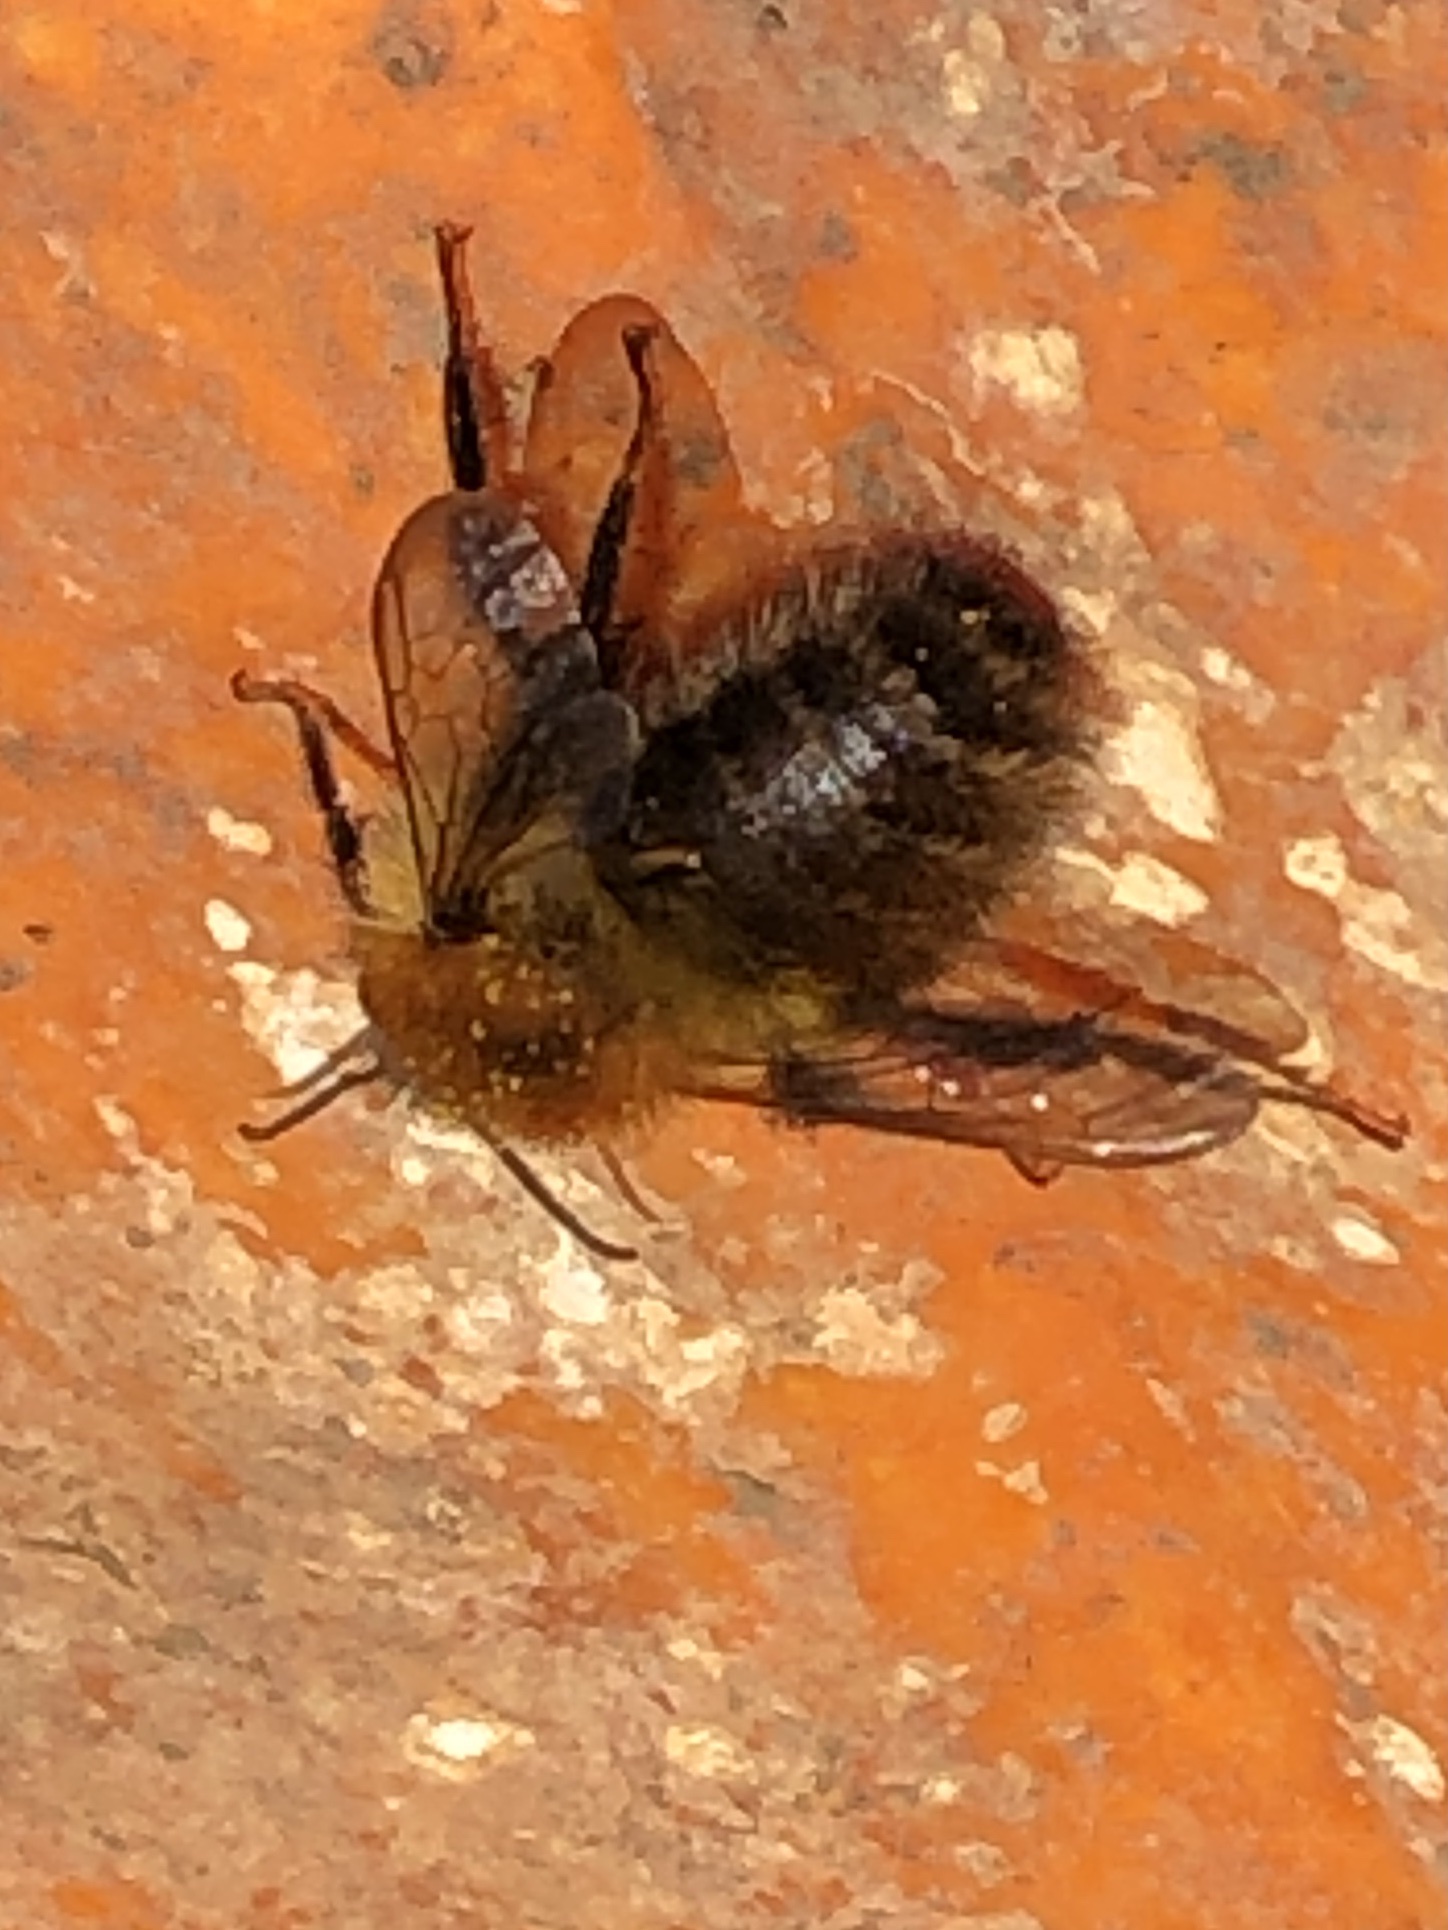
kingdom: Animalia
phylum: Arthropoda
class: Insecta
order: Hymenoptera
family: Apidae
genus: Bombus
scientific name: Bombus pascuorum
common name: Common carder bee
